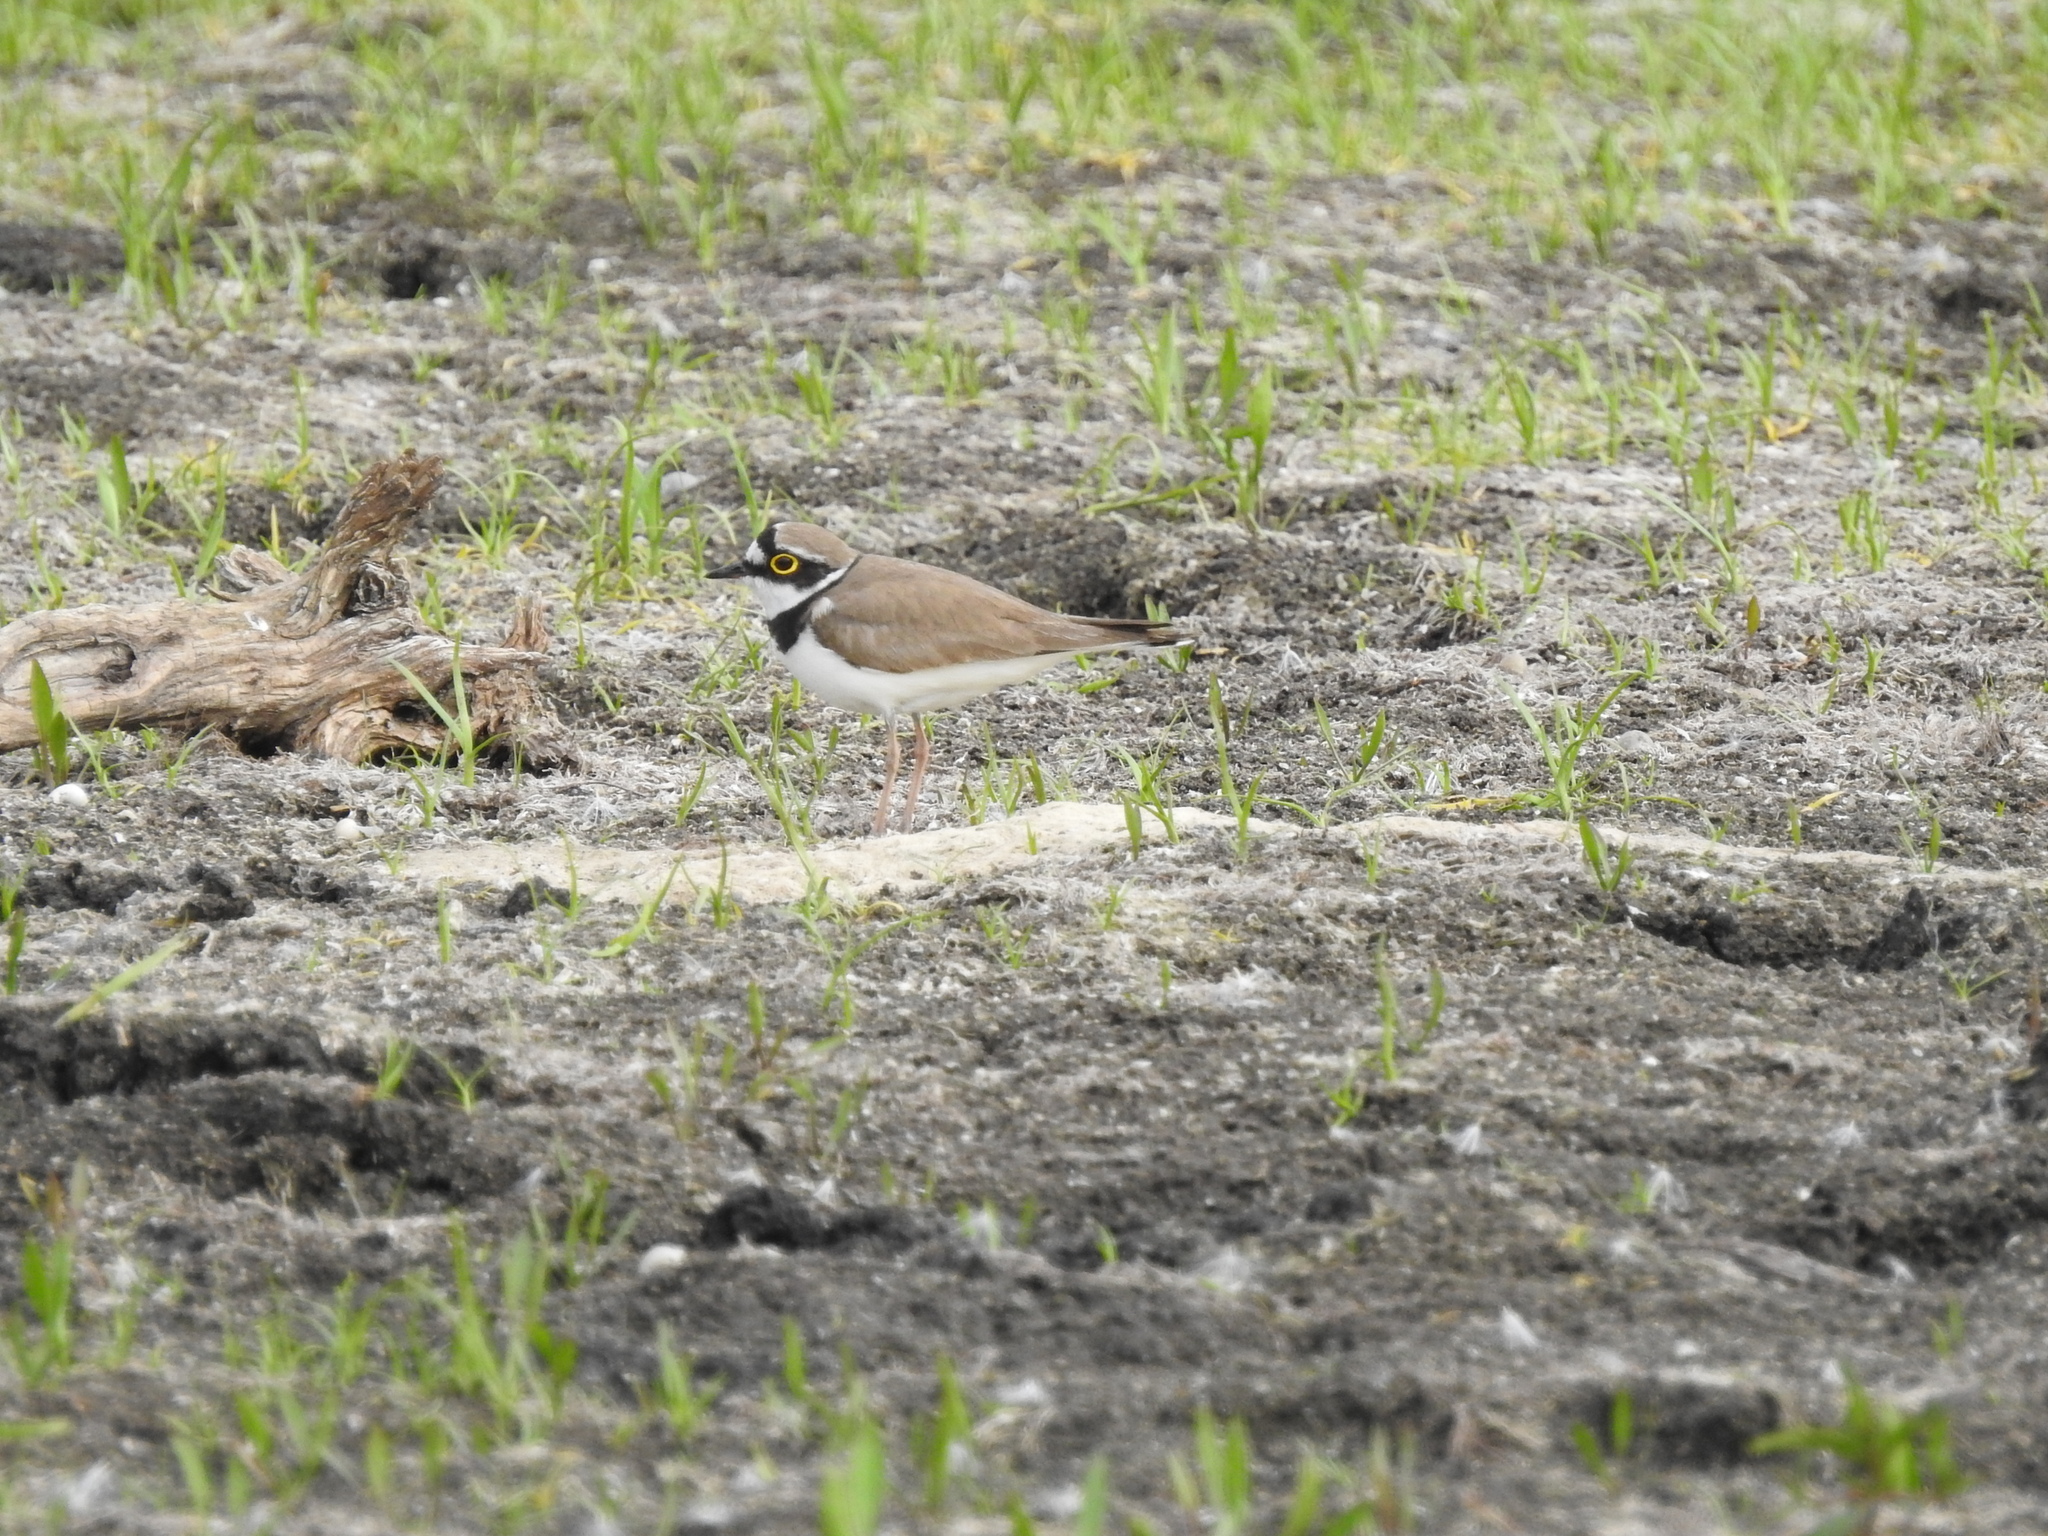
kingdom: Animalia
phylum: Chordata
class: Aves
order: Charadriiformes
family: Charadriidae
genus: Charadrius
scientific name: Charadrius dubius
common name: Little ringed plover
